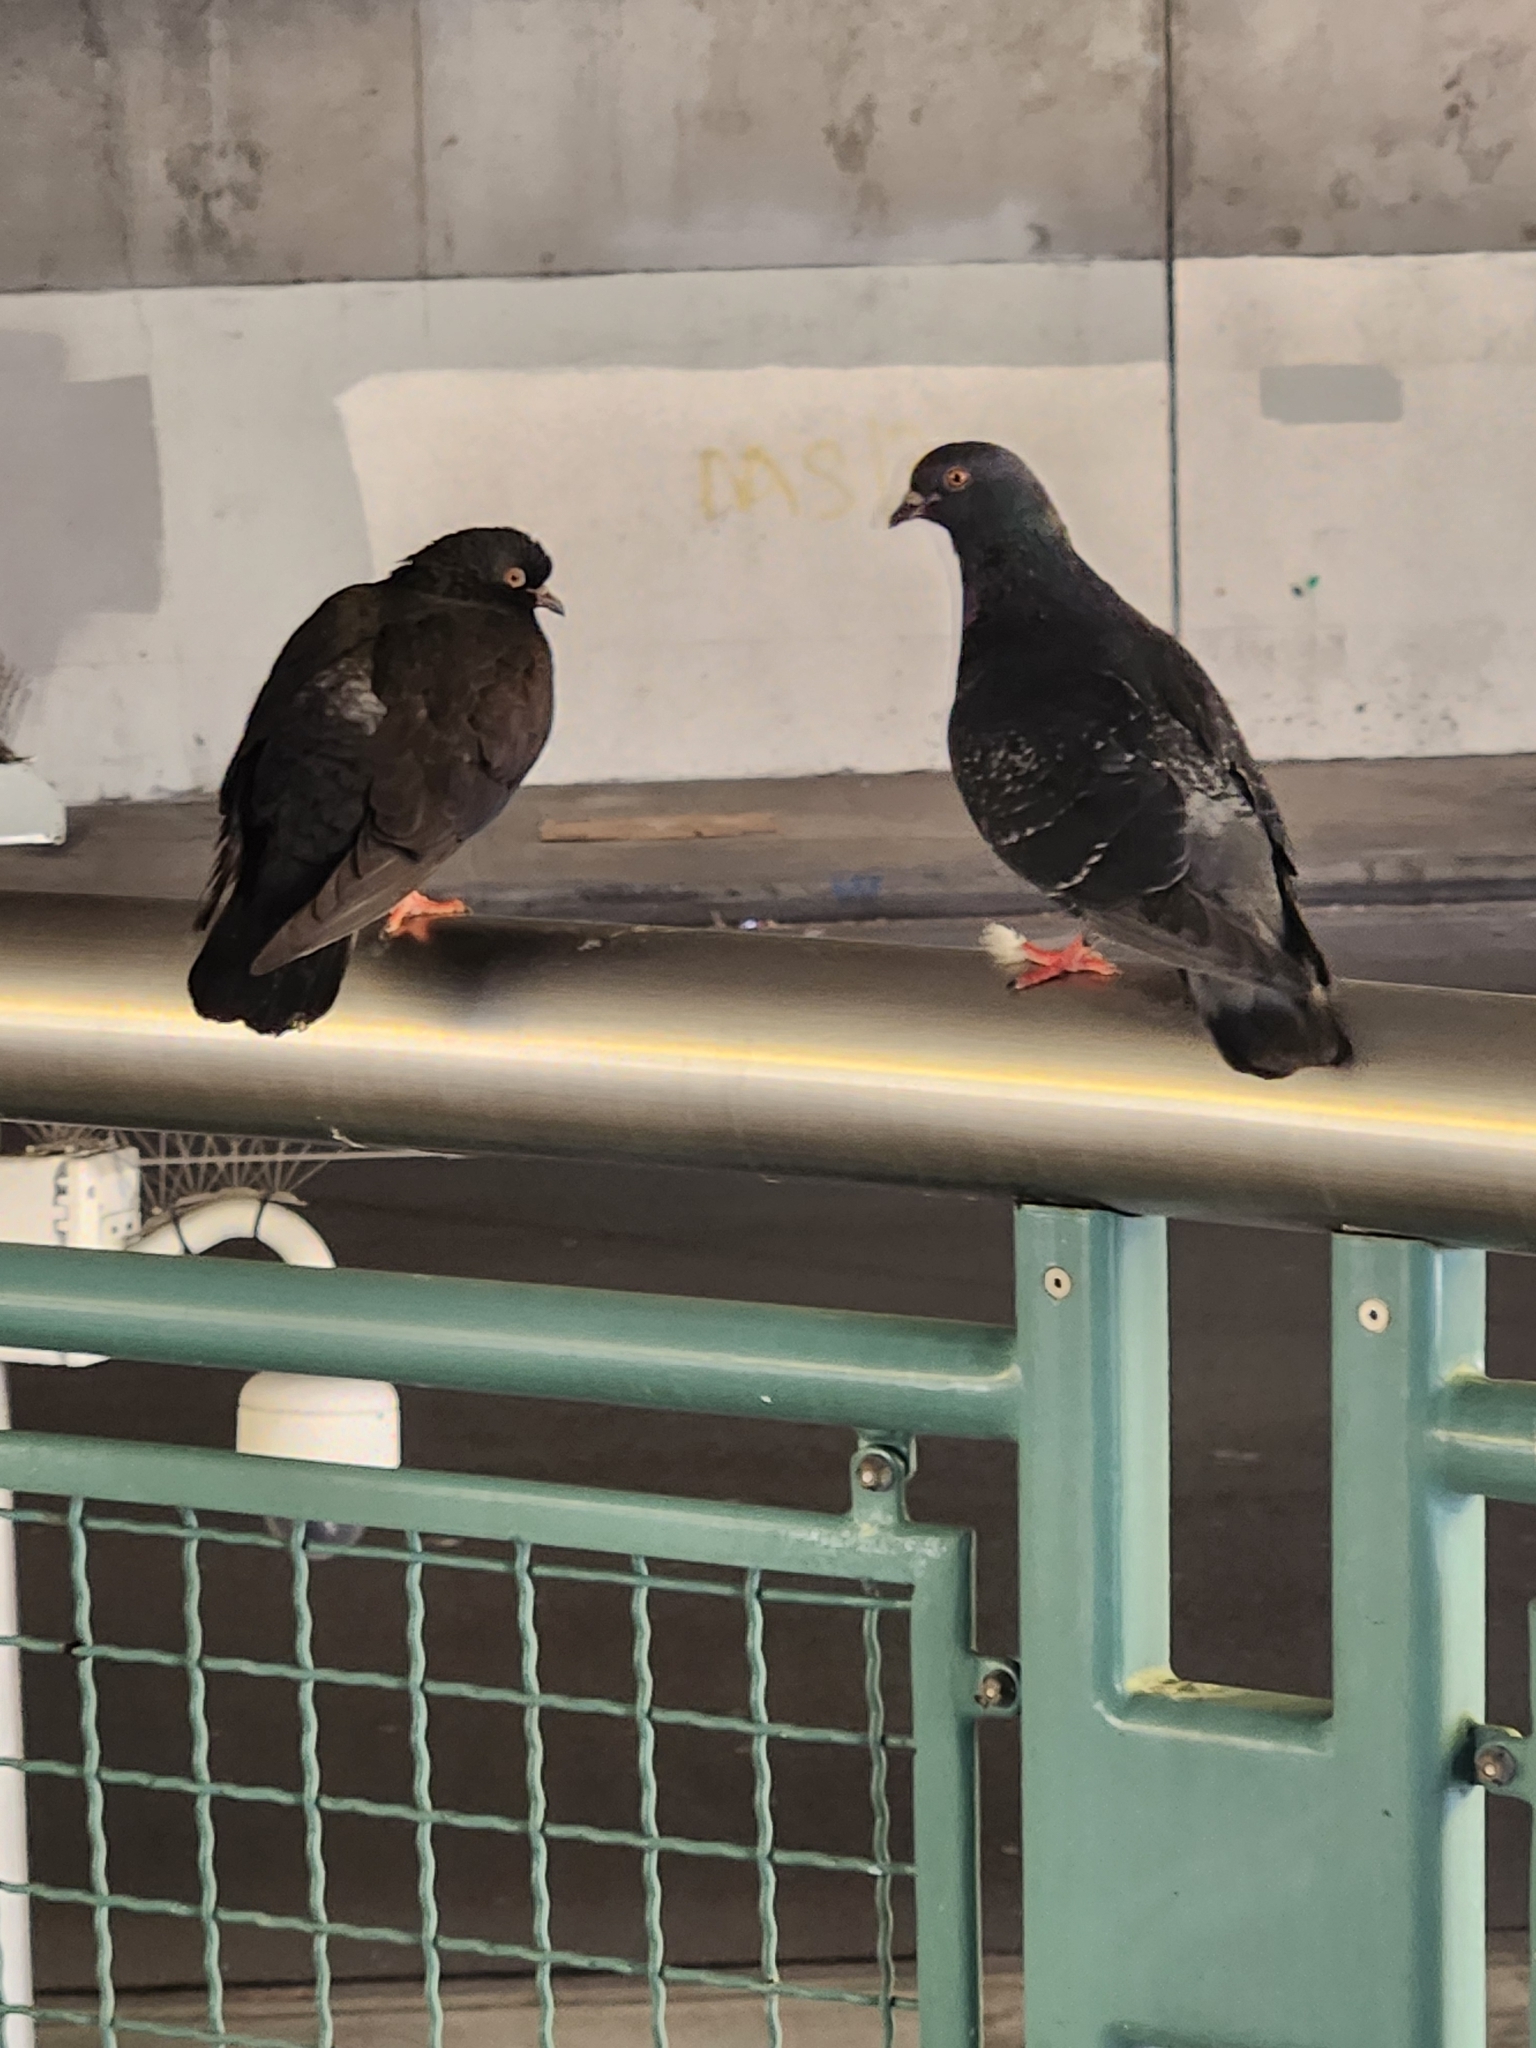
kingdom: Animalia
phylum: Chordata
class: Aves
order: Columbiformes
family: Columbidae
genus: Columba
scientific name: Columba livia
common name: Rock pigeon
